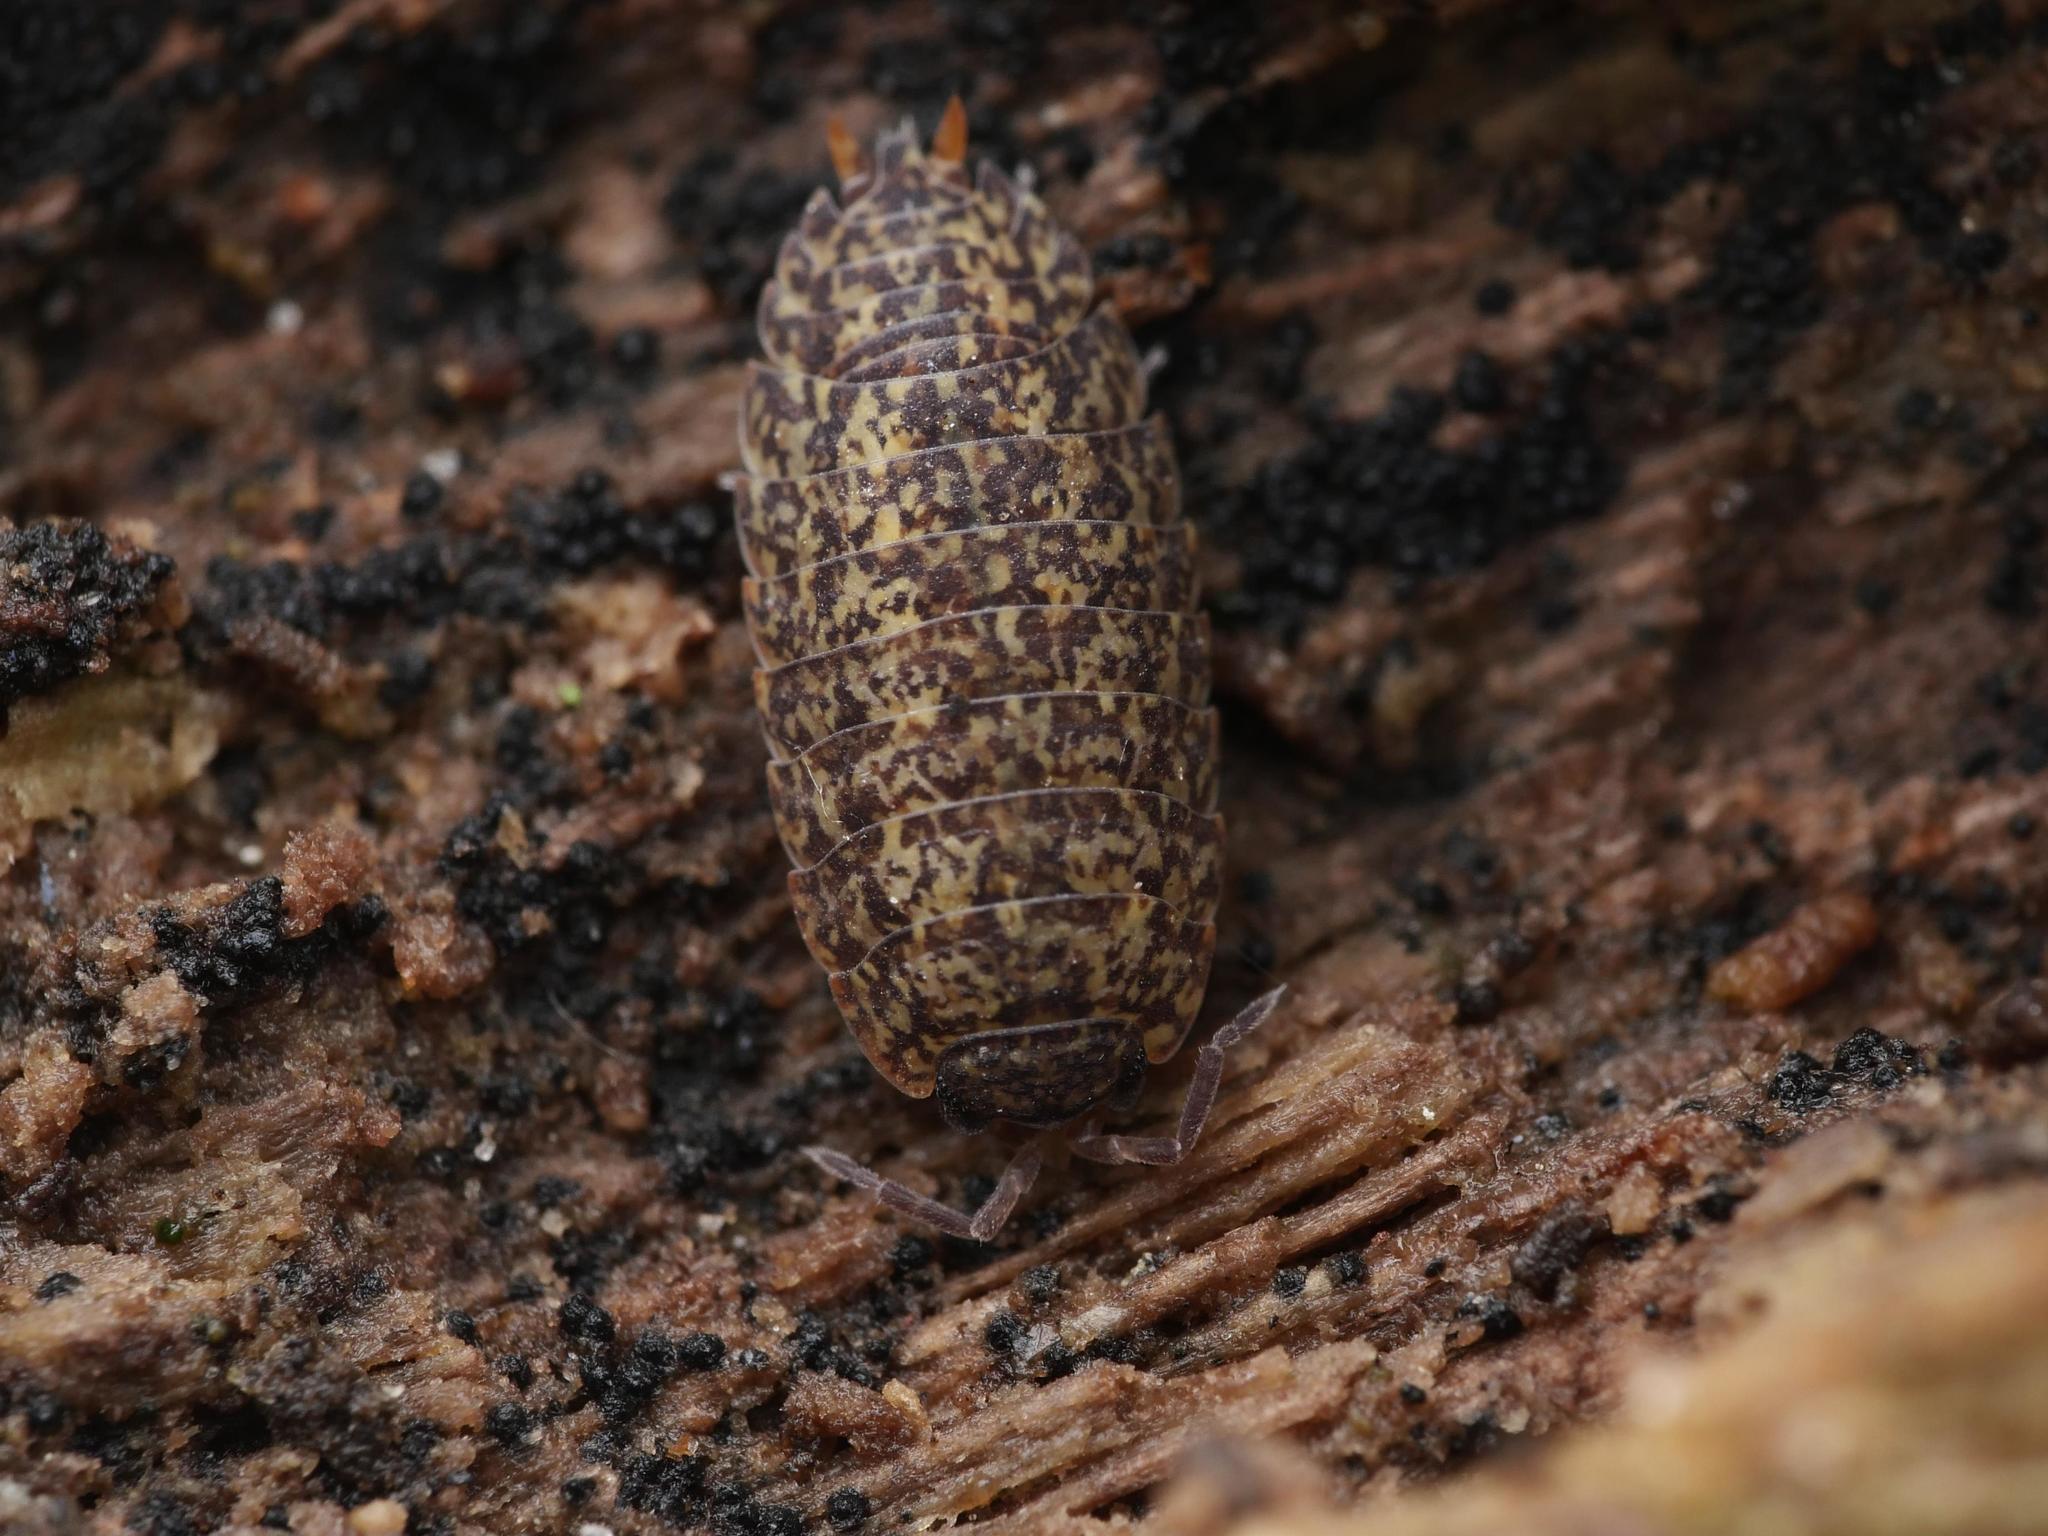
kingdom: Animalia
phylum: Arthropoda
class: Malacostraca
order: Isopoda
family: Trachelipodidae
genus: Porcellium
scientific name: Porcellium collicola
